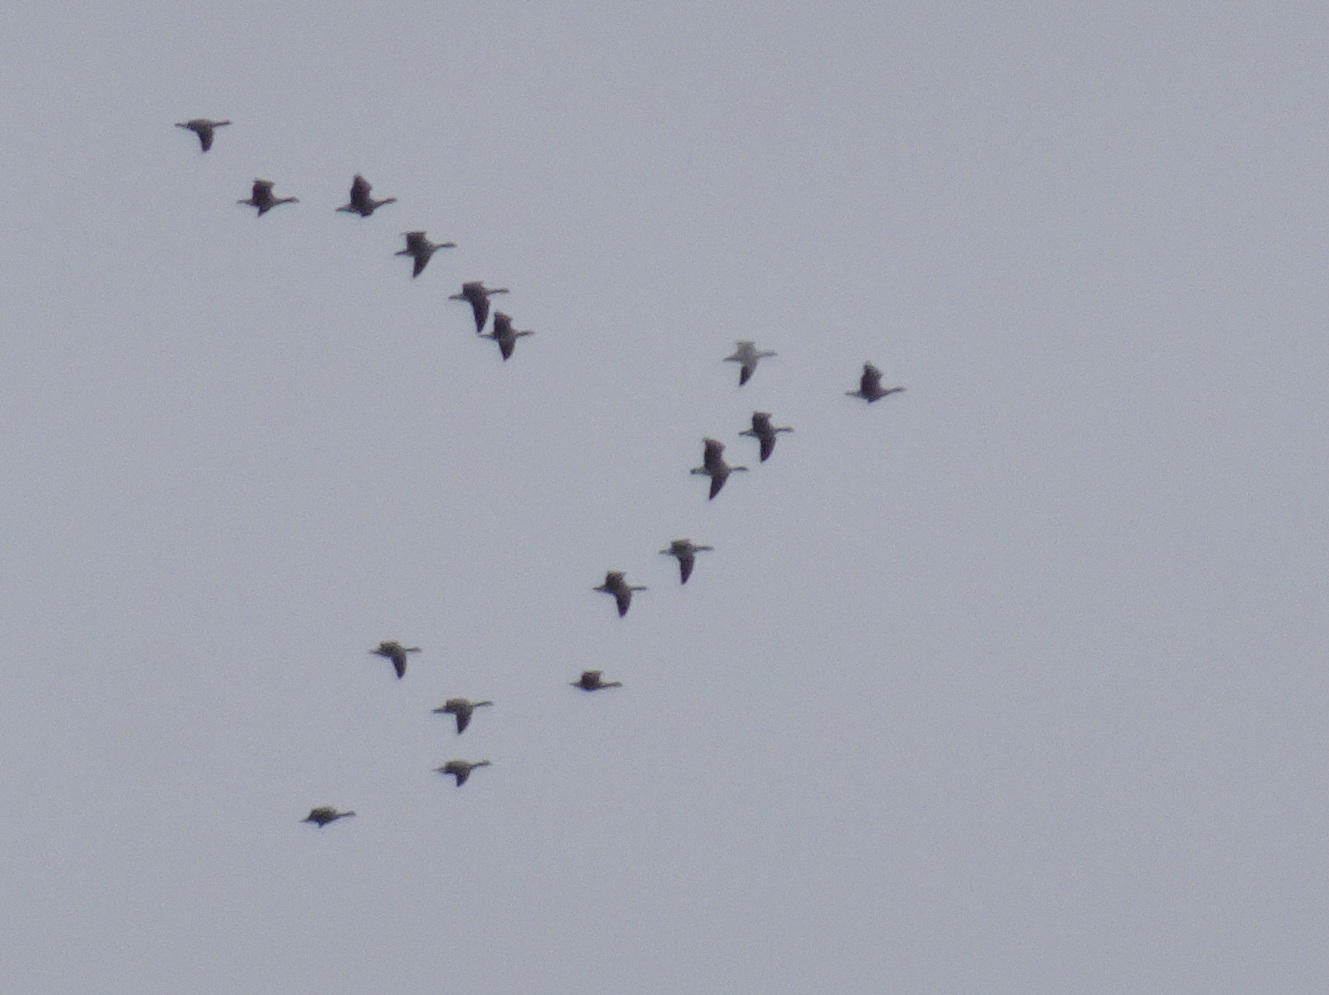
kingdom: Animalia
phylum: Chordata
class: Aves
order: Anseriformes
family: Anatidae
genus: Anser
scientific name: Anser caerulescens
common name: Snow goose
